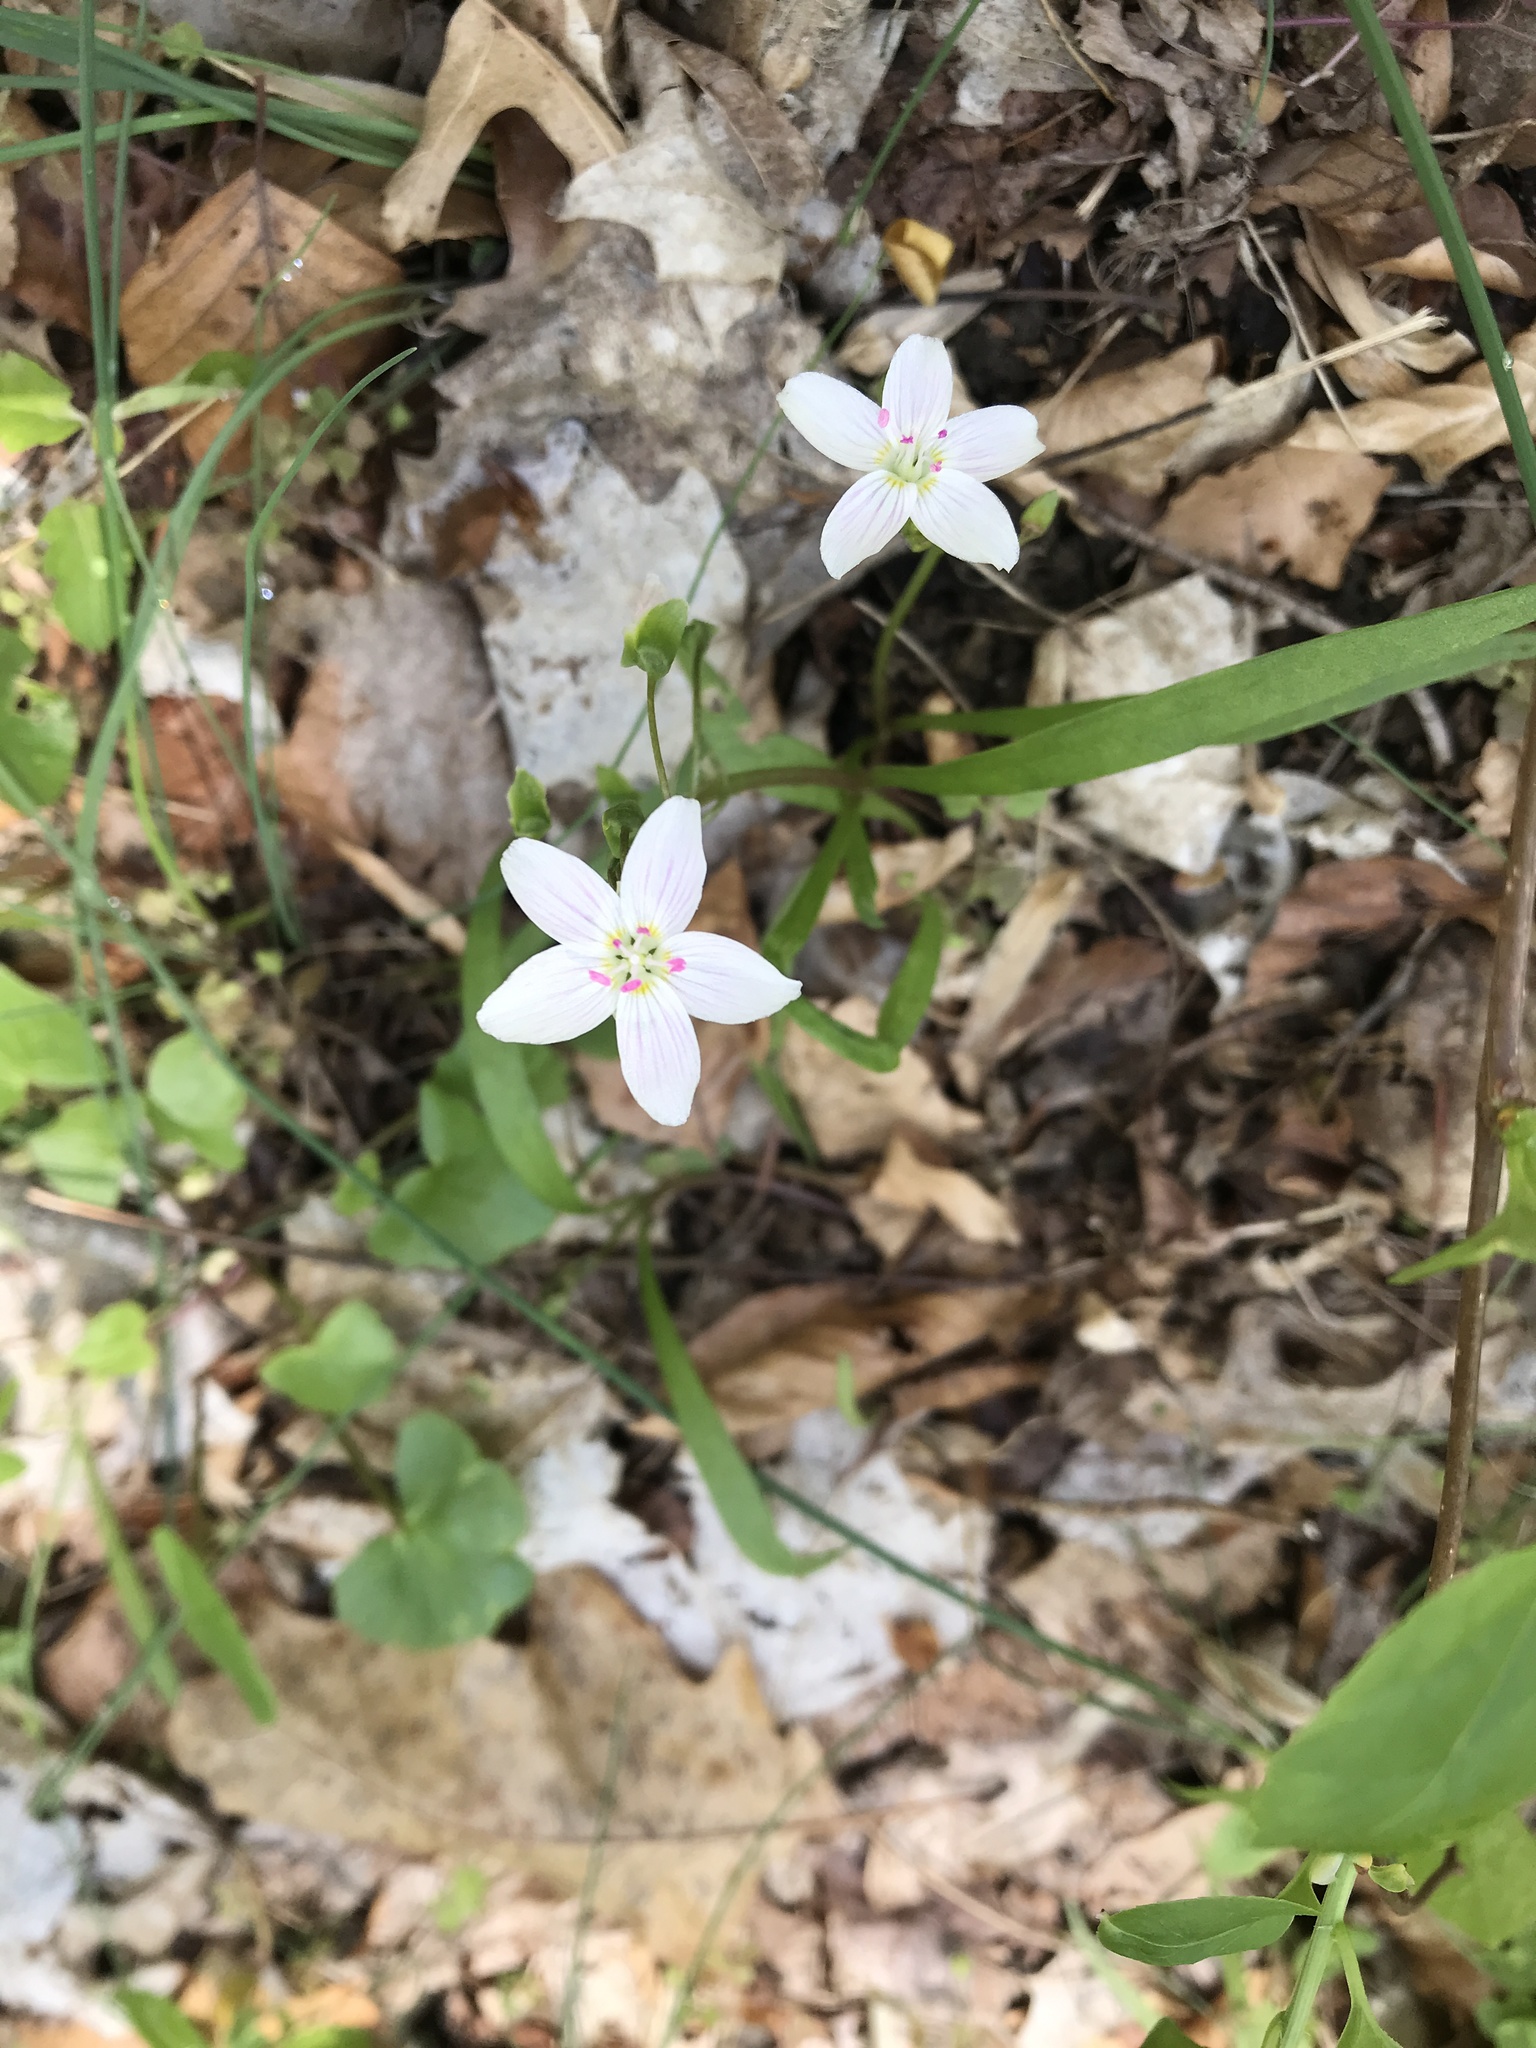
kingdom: Plantae
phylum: Tracheophyta
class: Magnoliopsida
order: Caryophyllales
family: Montiaceae
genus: Claytonia
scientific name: Claytonia virginica
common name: Virginia springbeauty
